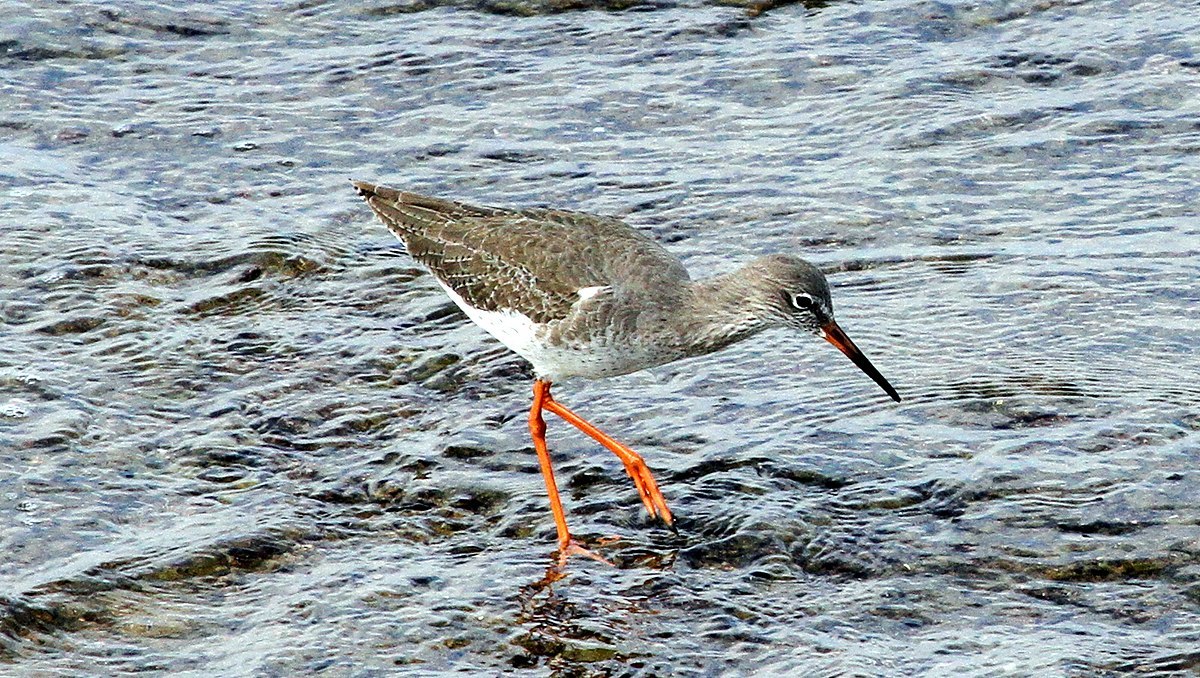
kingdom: Animalia
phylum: Chordata
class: Aves
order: Charadriiformes
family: Scolopacidae
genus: Tringa
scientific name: Tringa totanus
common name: Common redshank
